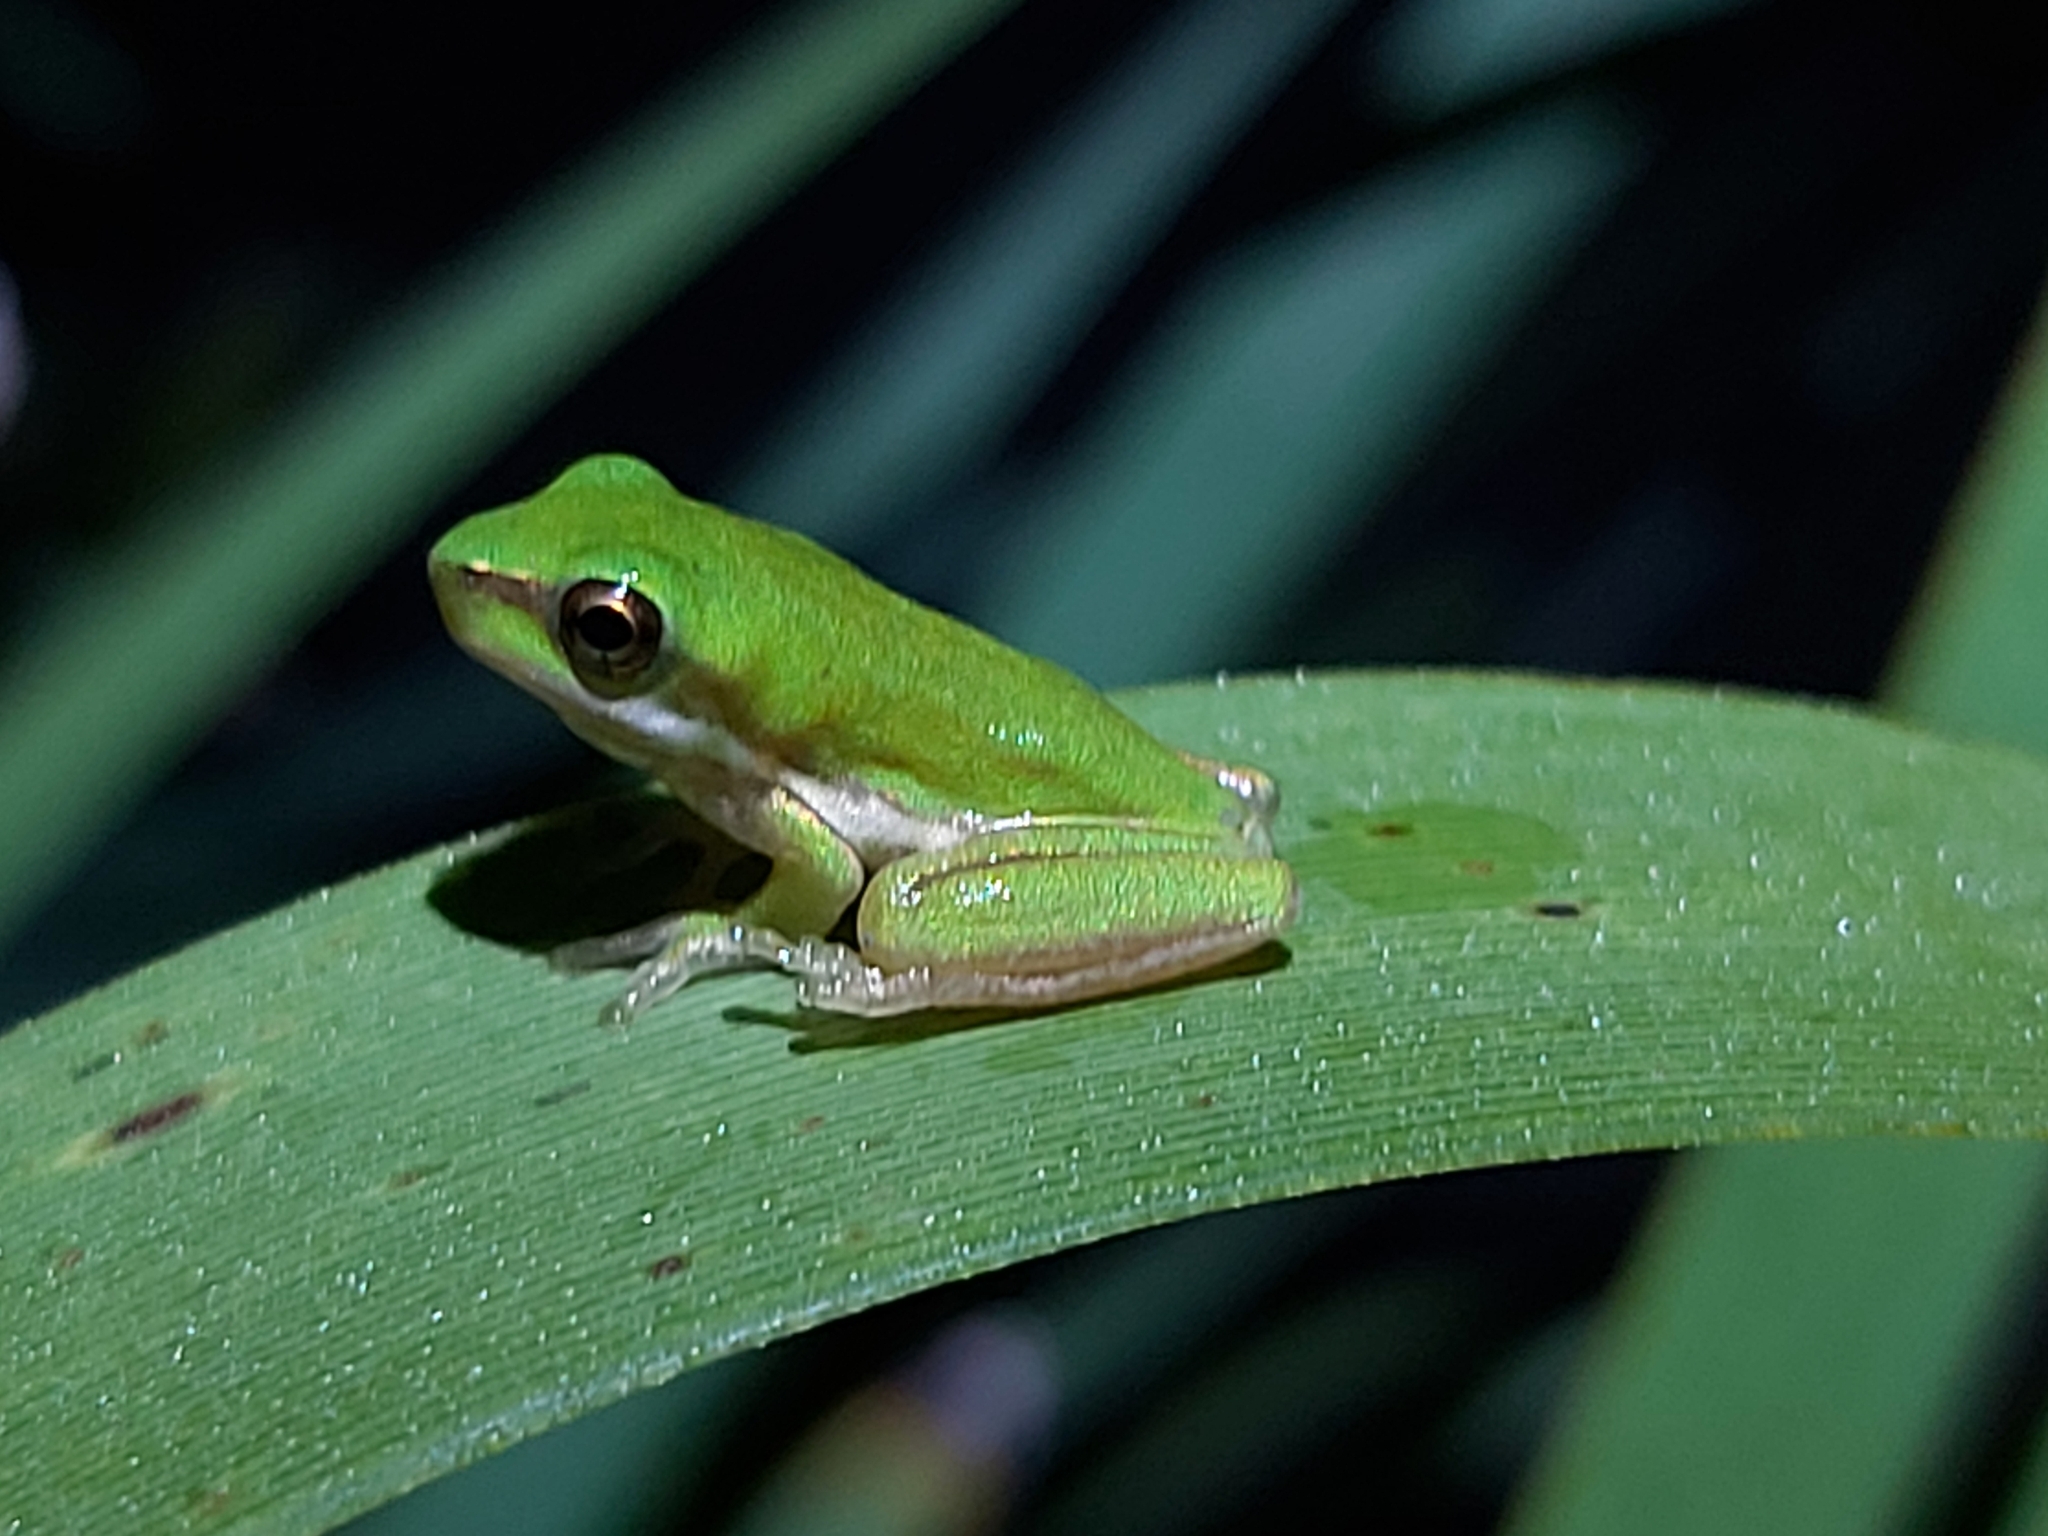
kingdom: Animalia
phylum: Chordata
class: Amphibia
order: Anura
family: Pelodryadidae
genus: Litoria
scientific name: Litoria fallax
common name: Eastern dwarf treefrog
